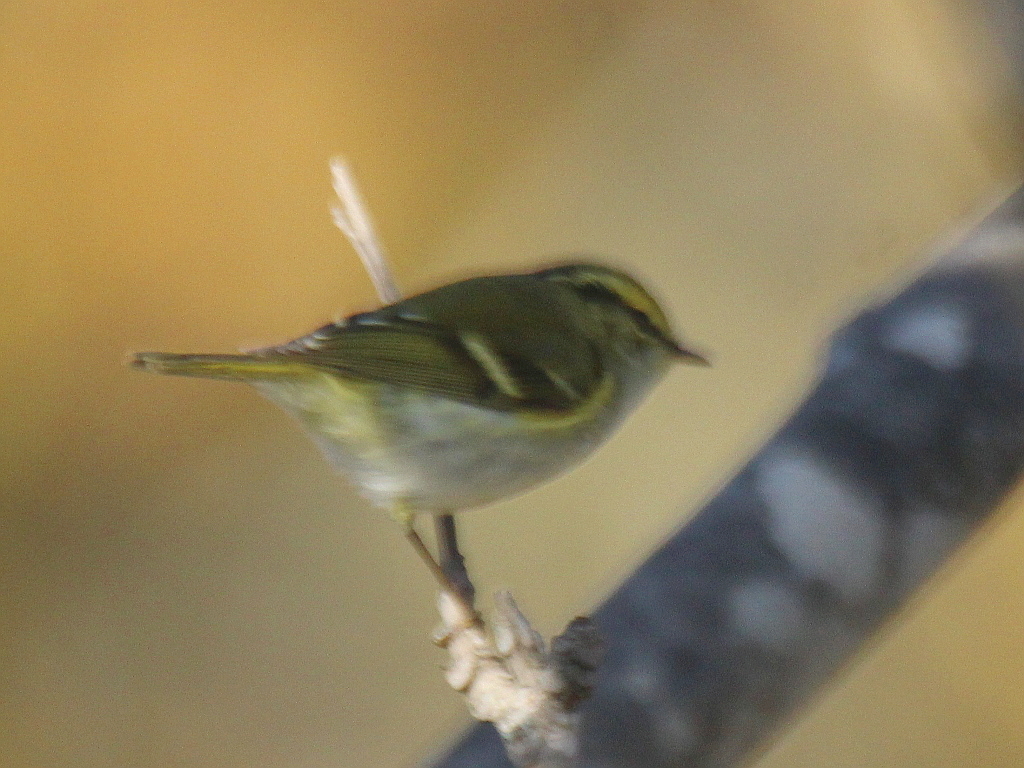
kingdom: Animalia
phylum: Chordata
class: Aves
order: Passeriformes
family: Phylloscopidae
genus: Phylloscopus
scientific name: Phylloscopus proregulus
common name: Pallas's leaf warbler
